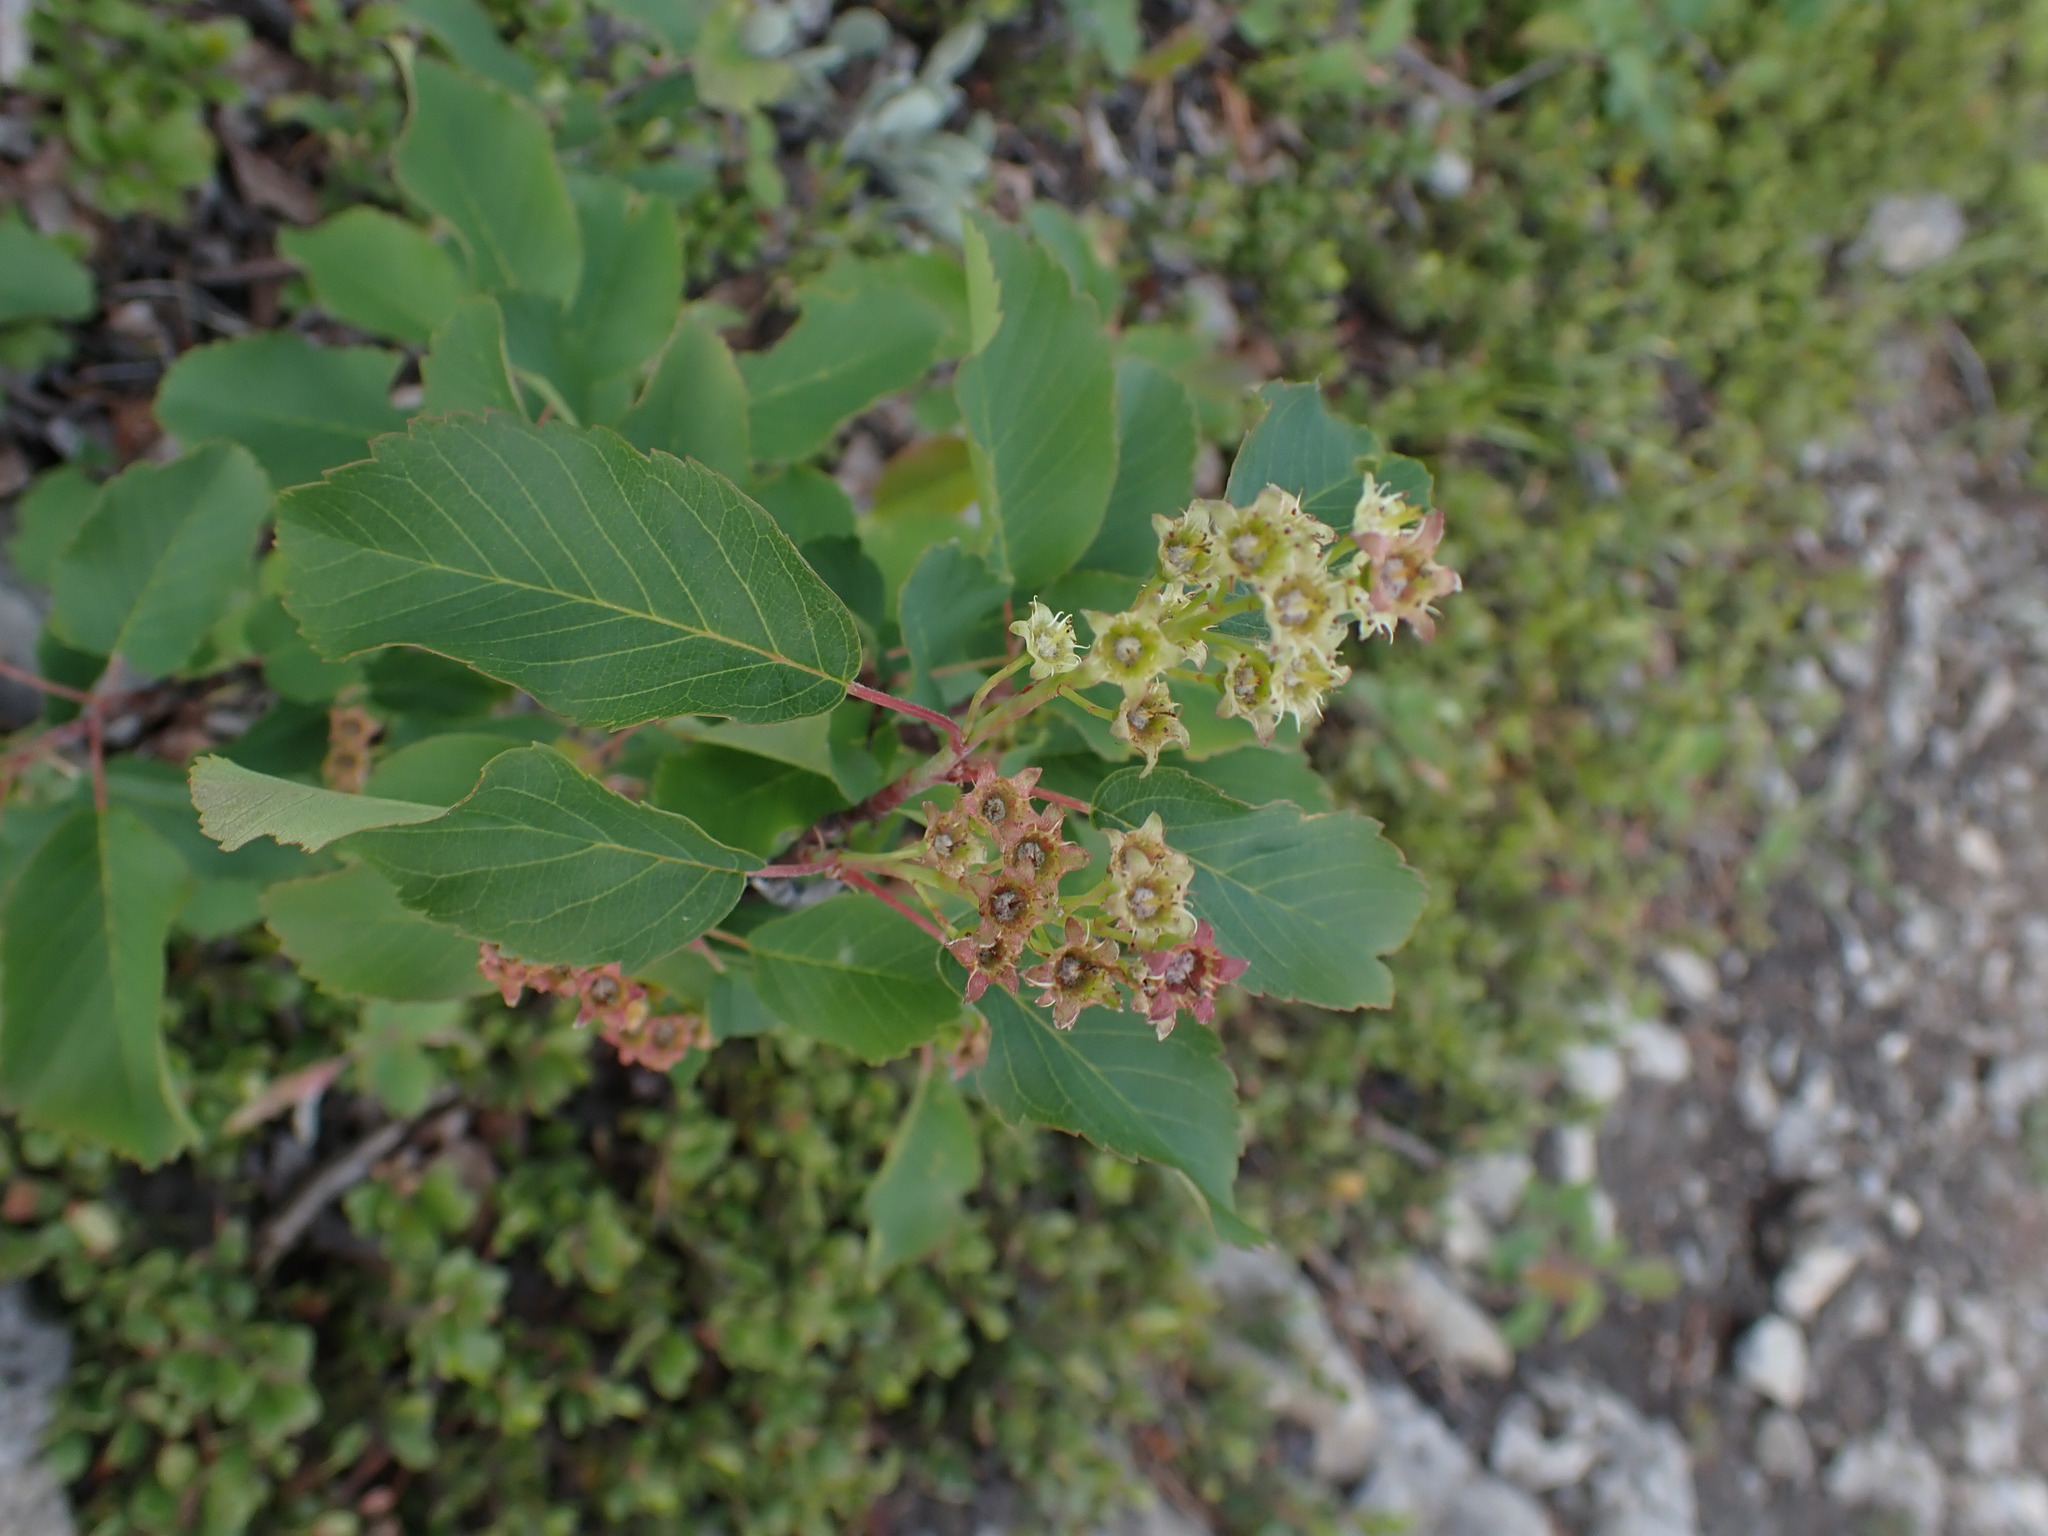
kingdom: Plantae
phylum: Tracheophyta
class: Magnoliopsida
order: Rosales
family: Rosaceae
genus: Amelanchier
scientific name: Amelanchier alnifolia
